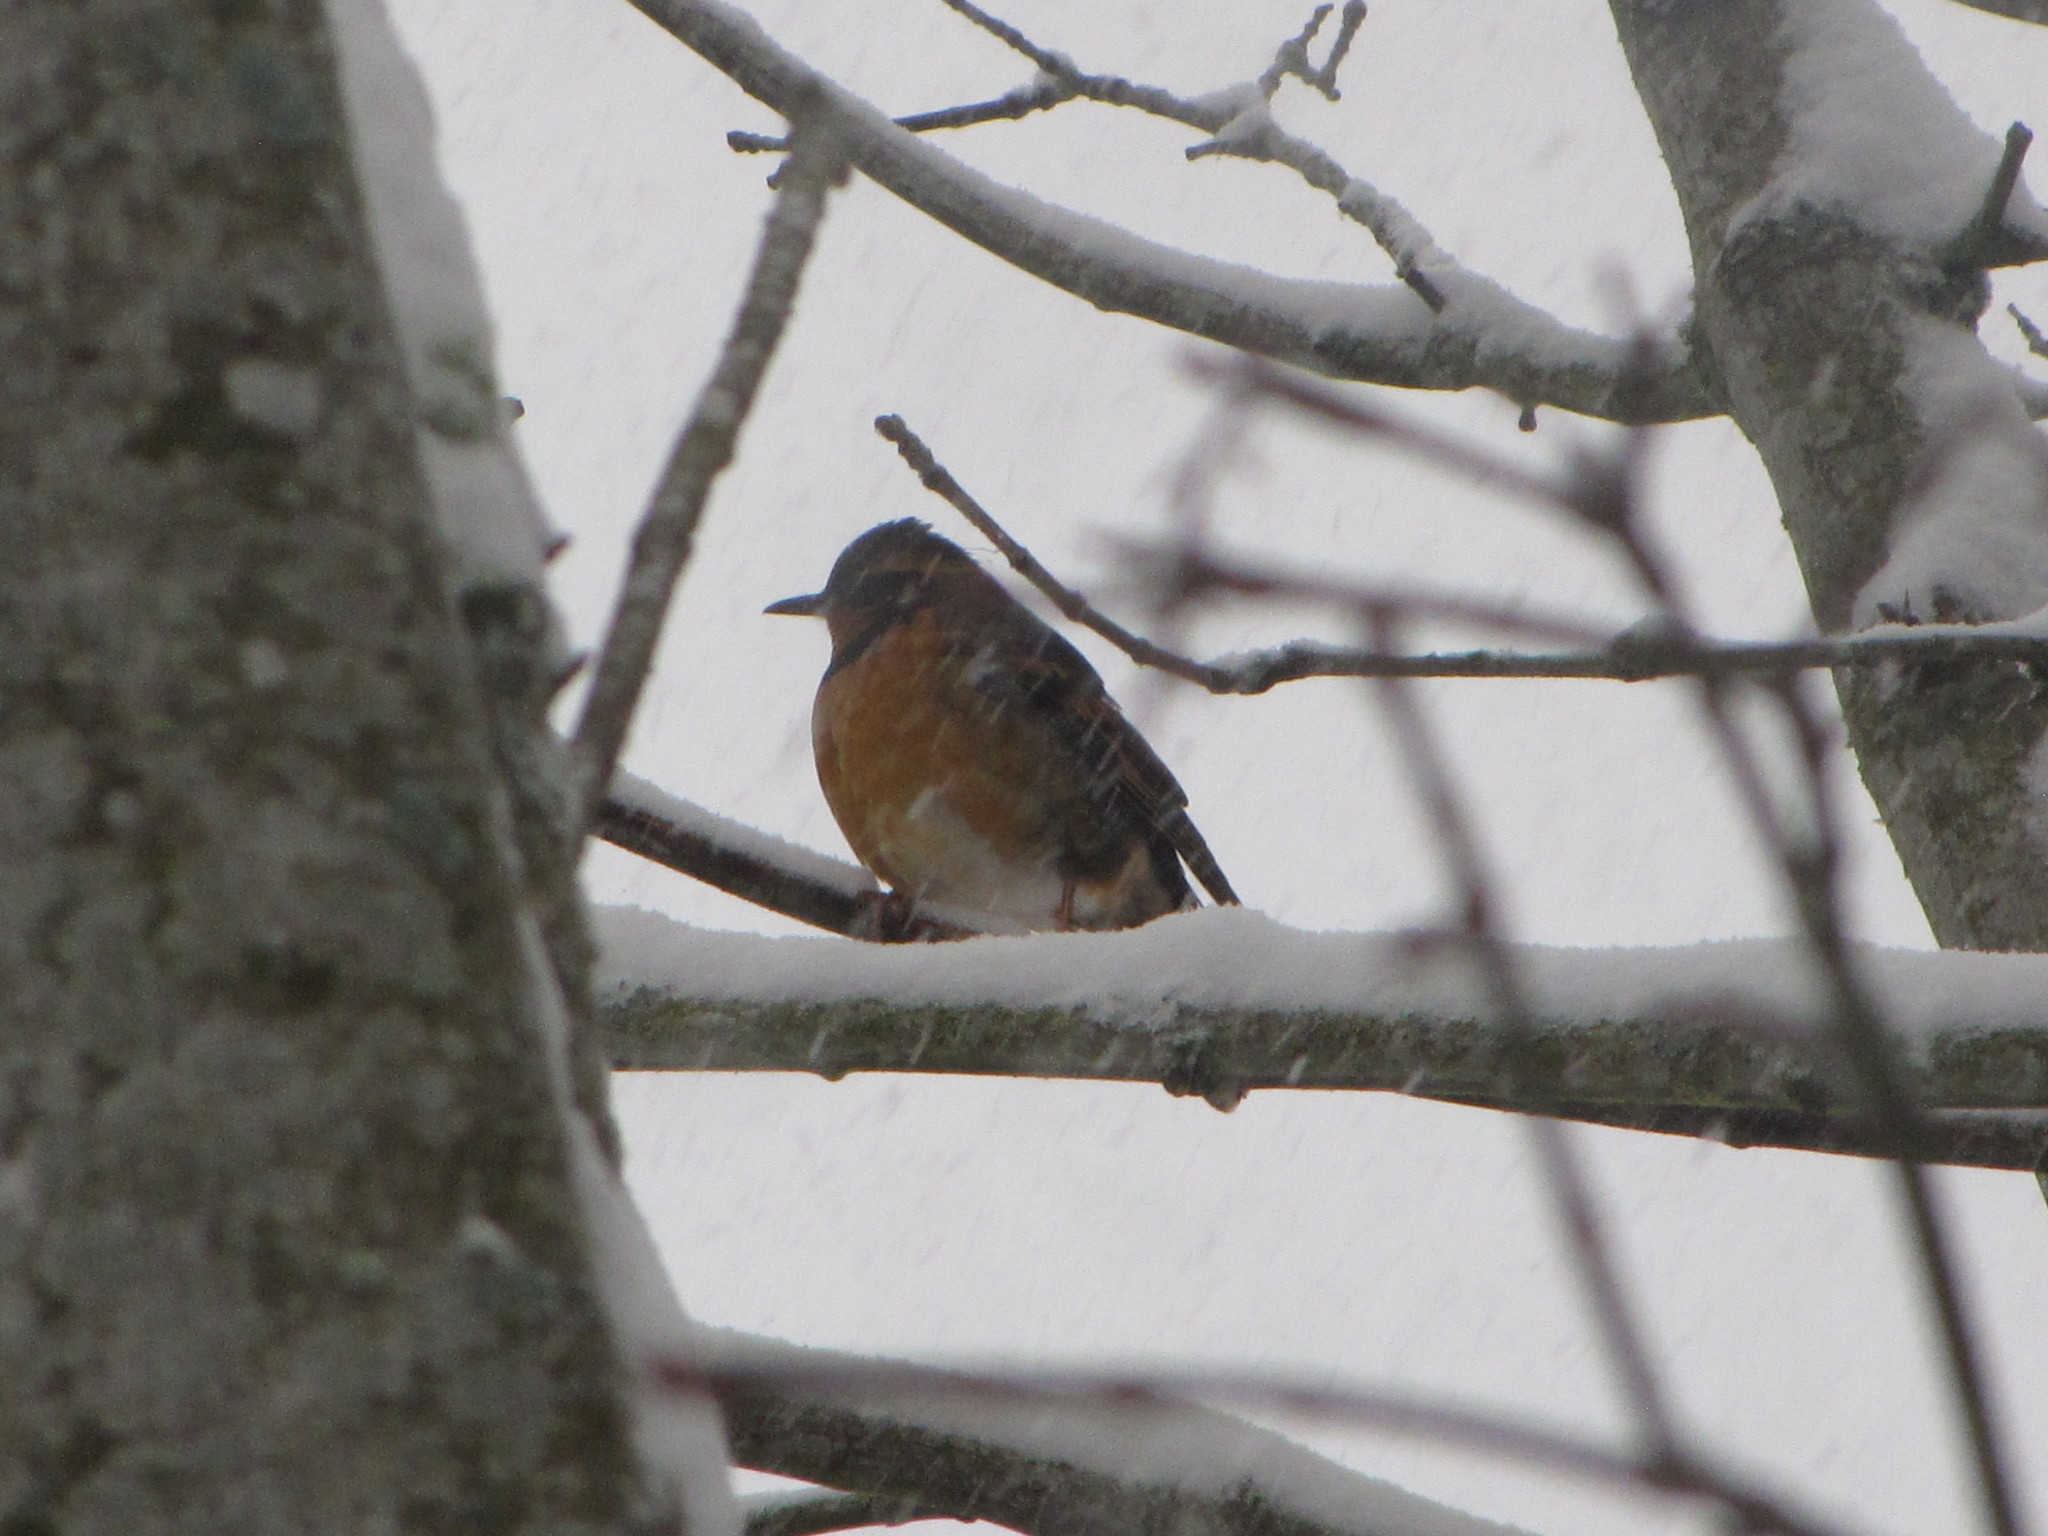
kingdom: Animalia
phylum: Chordata
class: Aves
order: Passeriformes
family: Turdidae
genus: Ixoreus
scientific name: Ixoreus naevius
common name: Varied thrush
